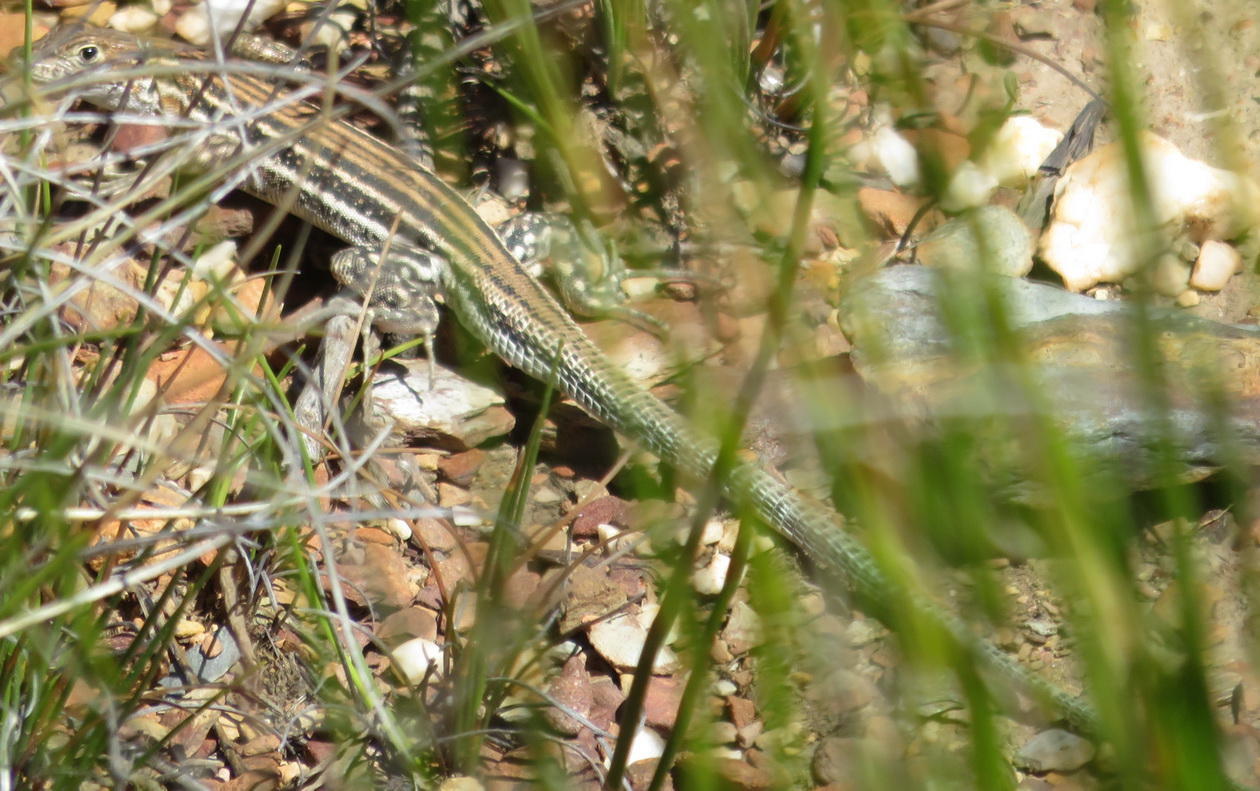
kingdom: Animalia
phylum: Chordata
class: Squamata
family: Lacertidae
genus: Pedioplanis
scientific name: Pedioplanis burchelli
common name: Burchell's sand lizard
